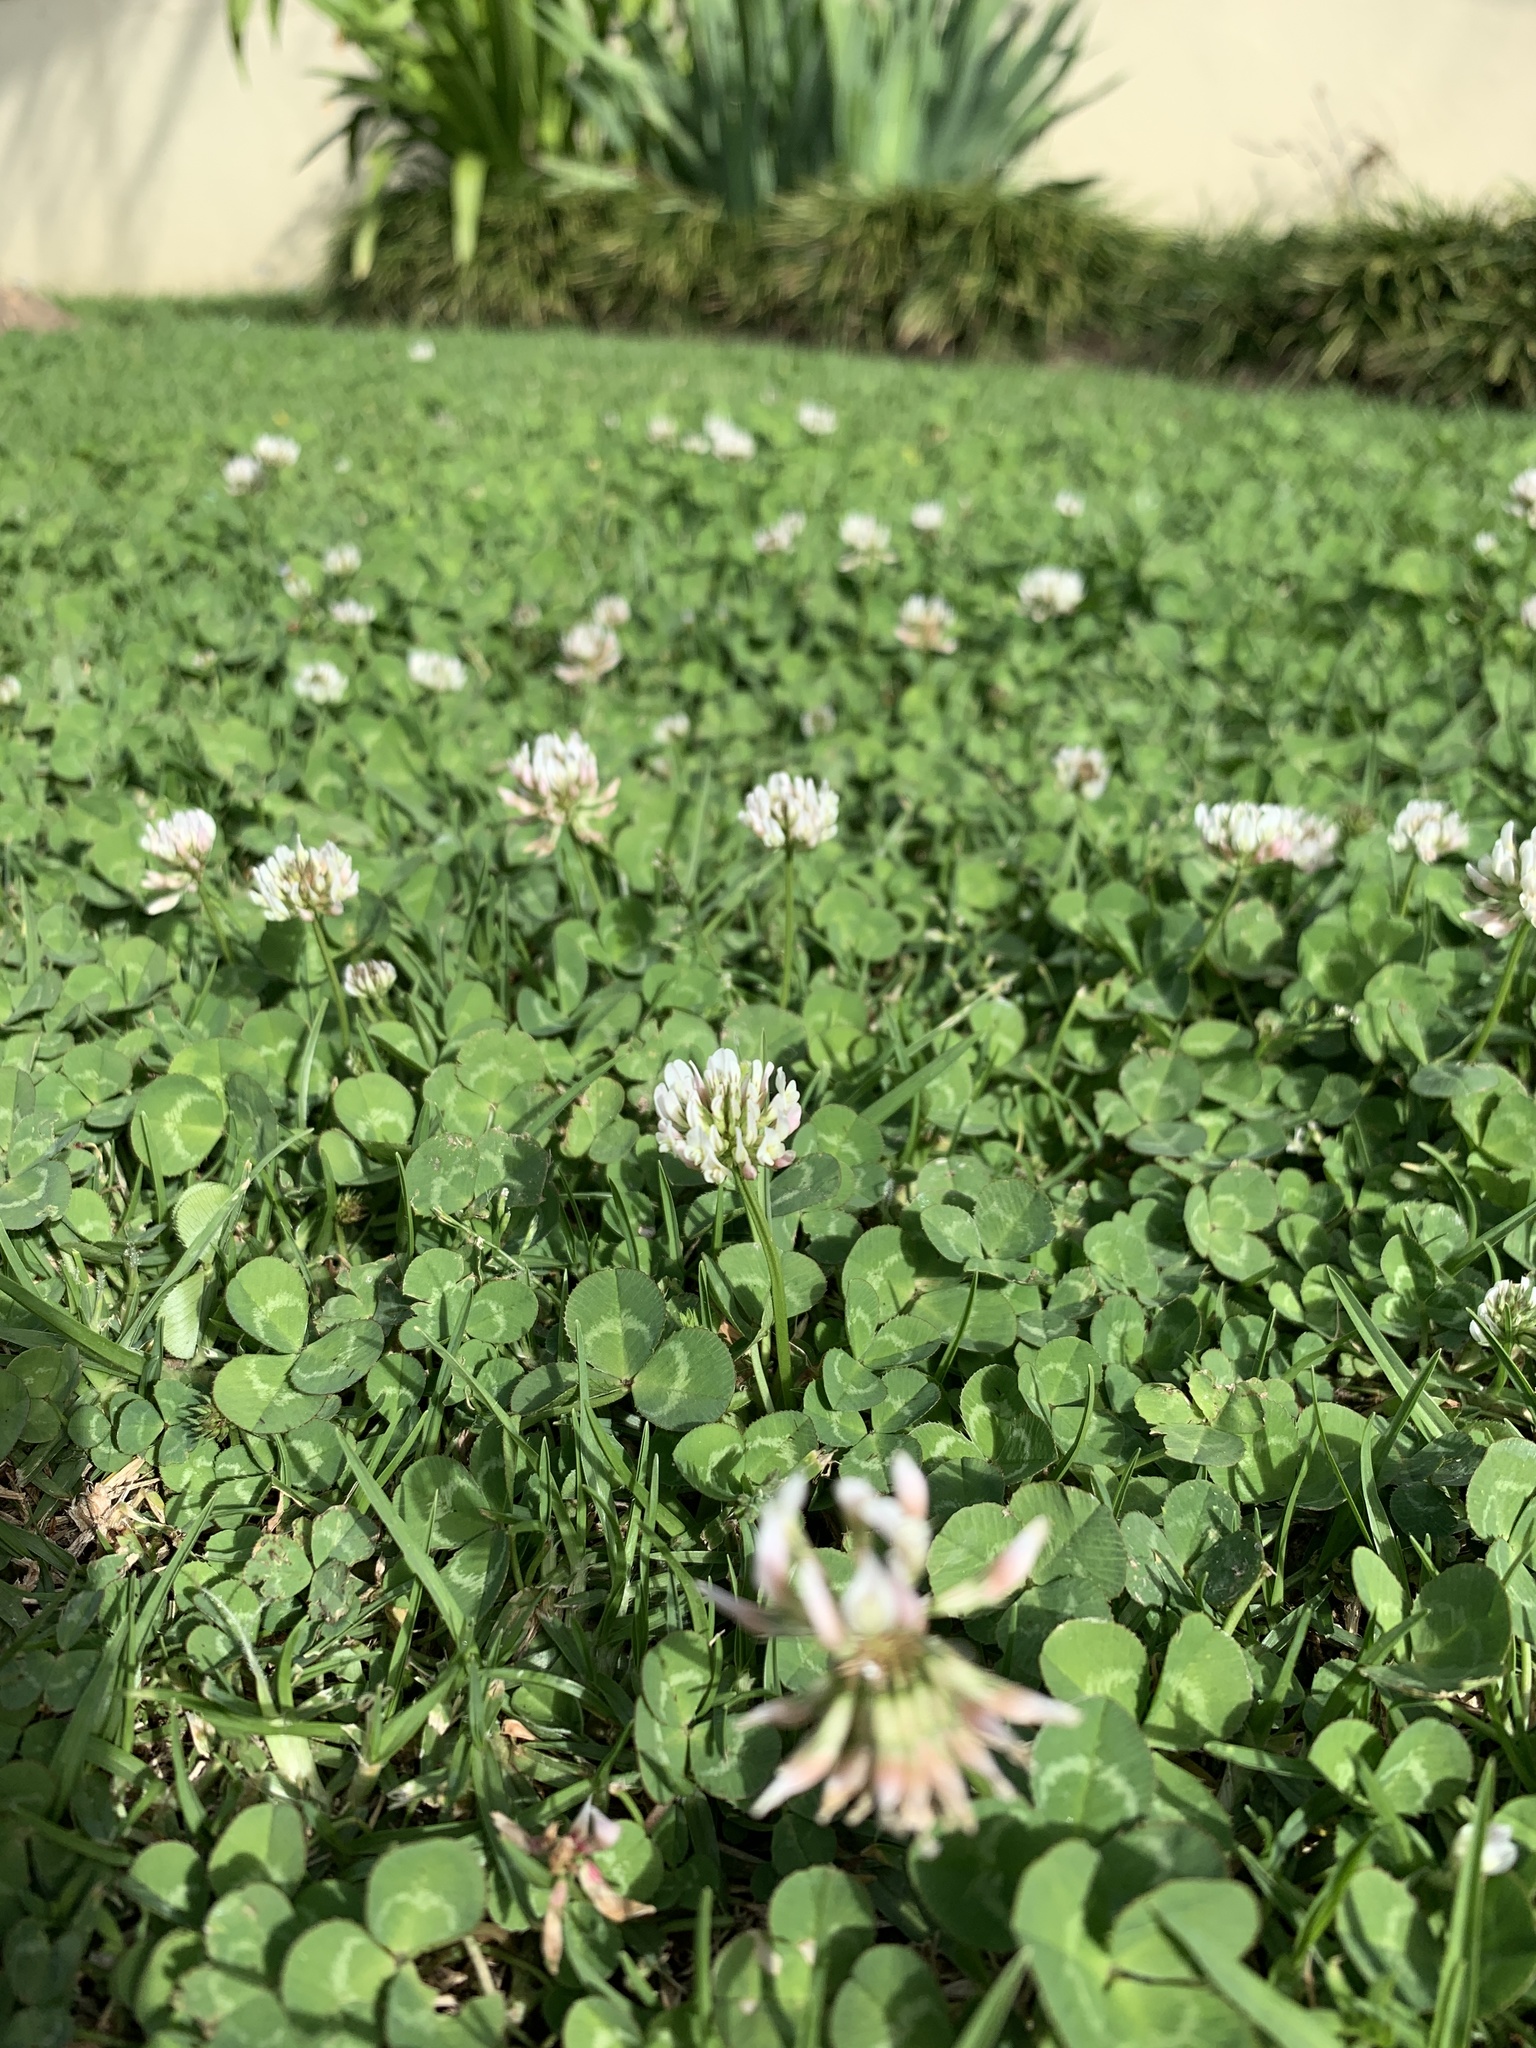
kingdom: Plantae
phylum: Tracheophyta
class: Magnoliopsida
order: Fabales
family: Fabaceae
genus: Trifolium
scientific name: Trifolium repens
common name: White clover
